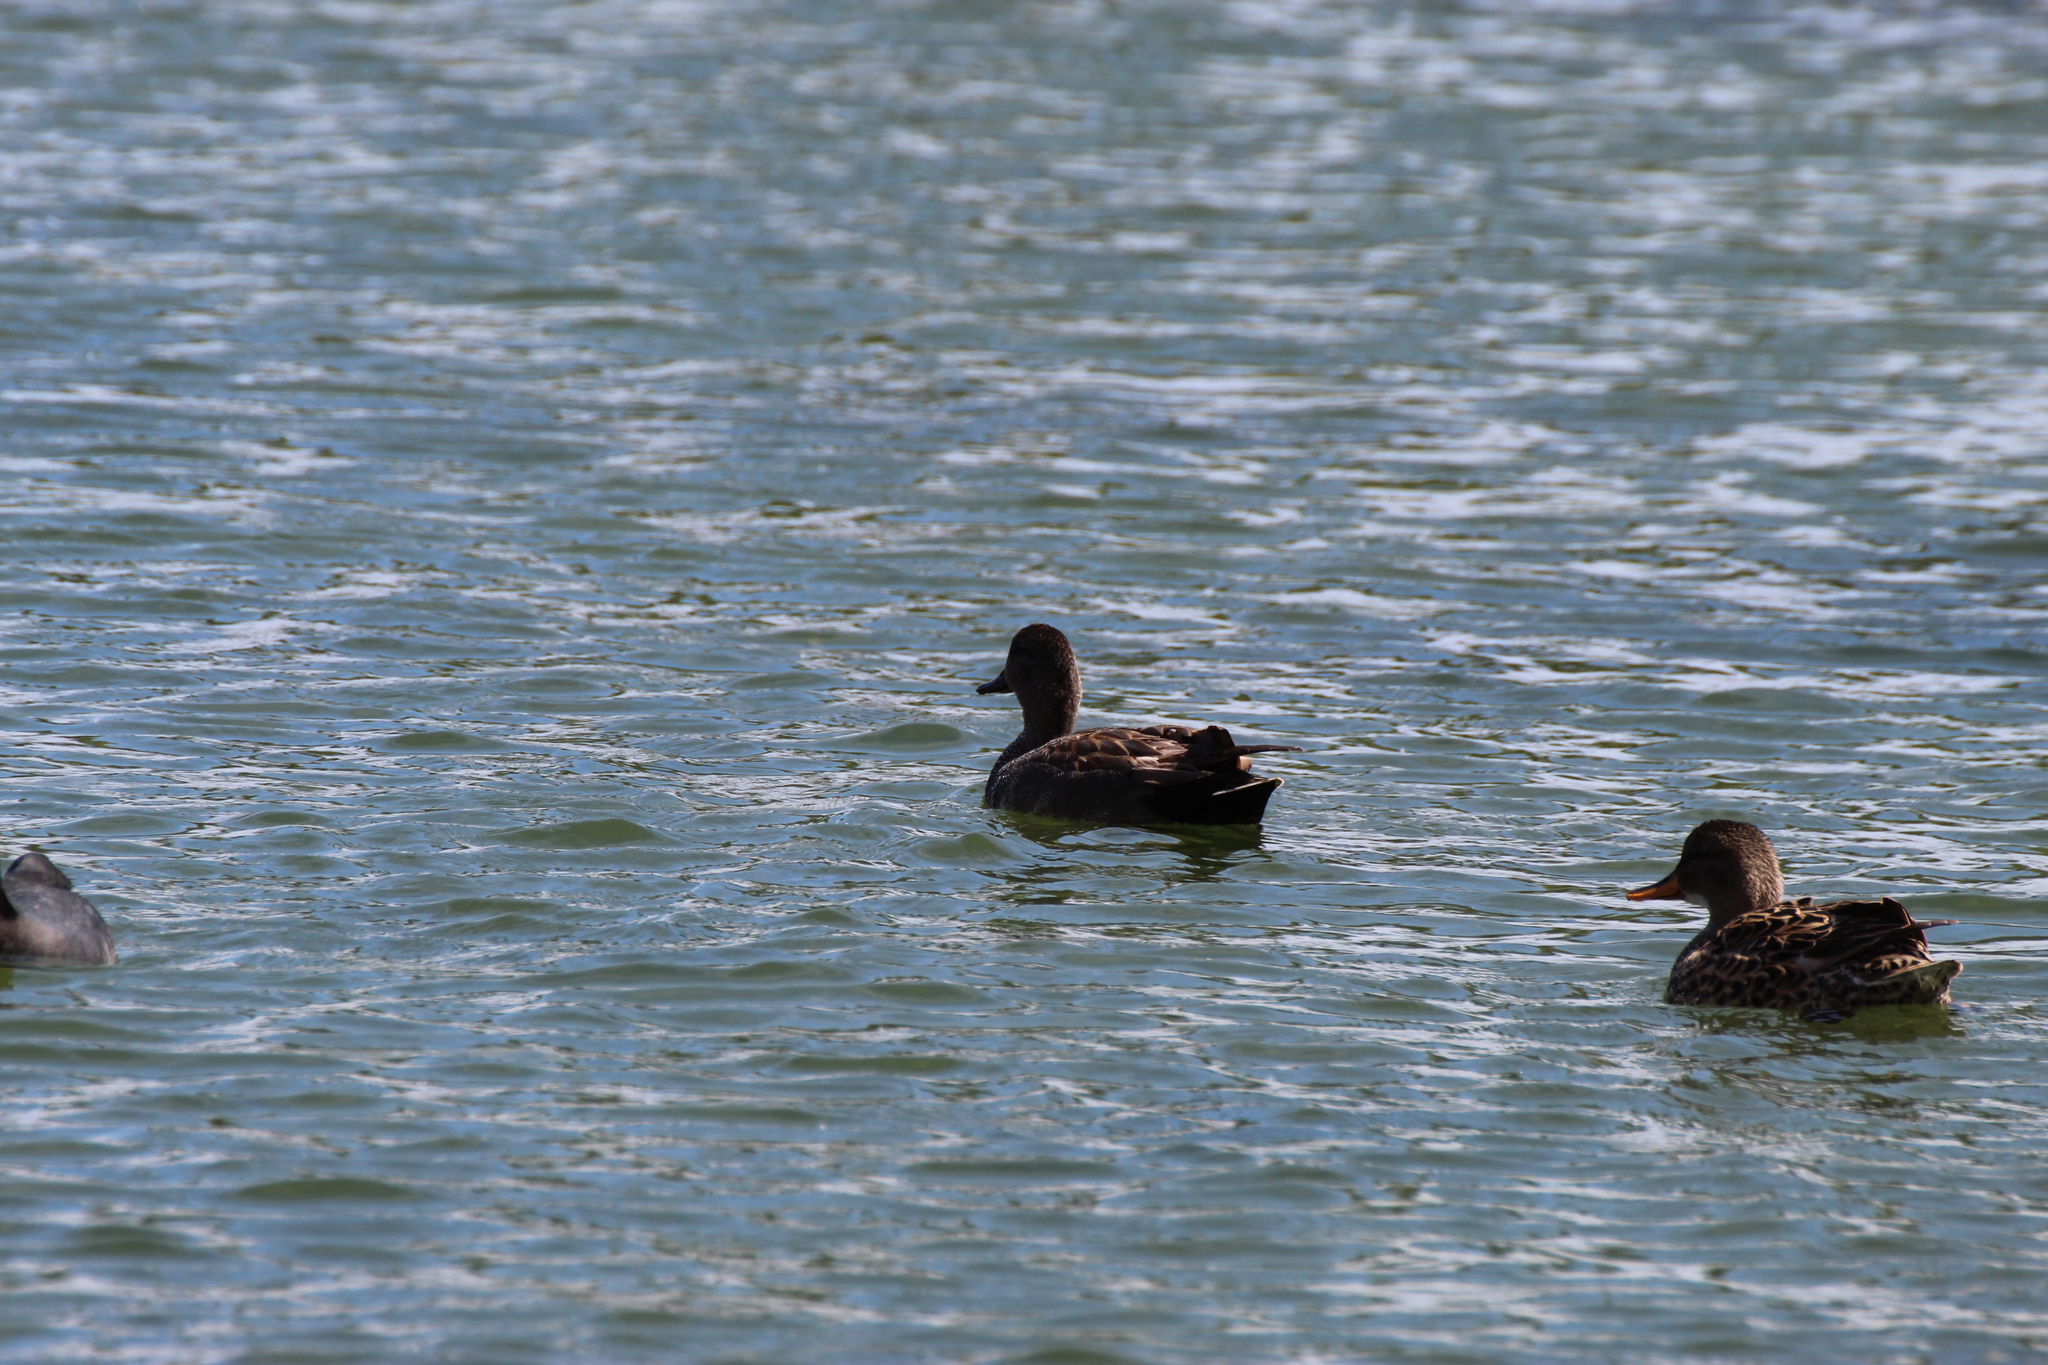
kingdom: Animalia
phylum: Chordata
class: Aves
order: Anseriformes
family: Anatidae
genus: Mareca
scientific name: Mareca strepera
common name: Gadwall
